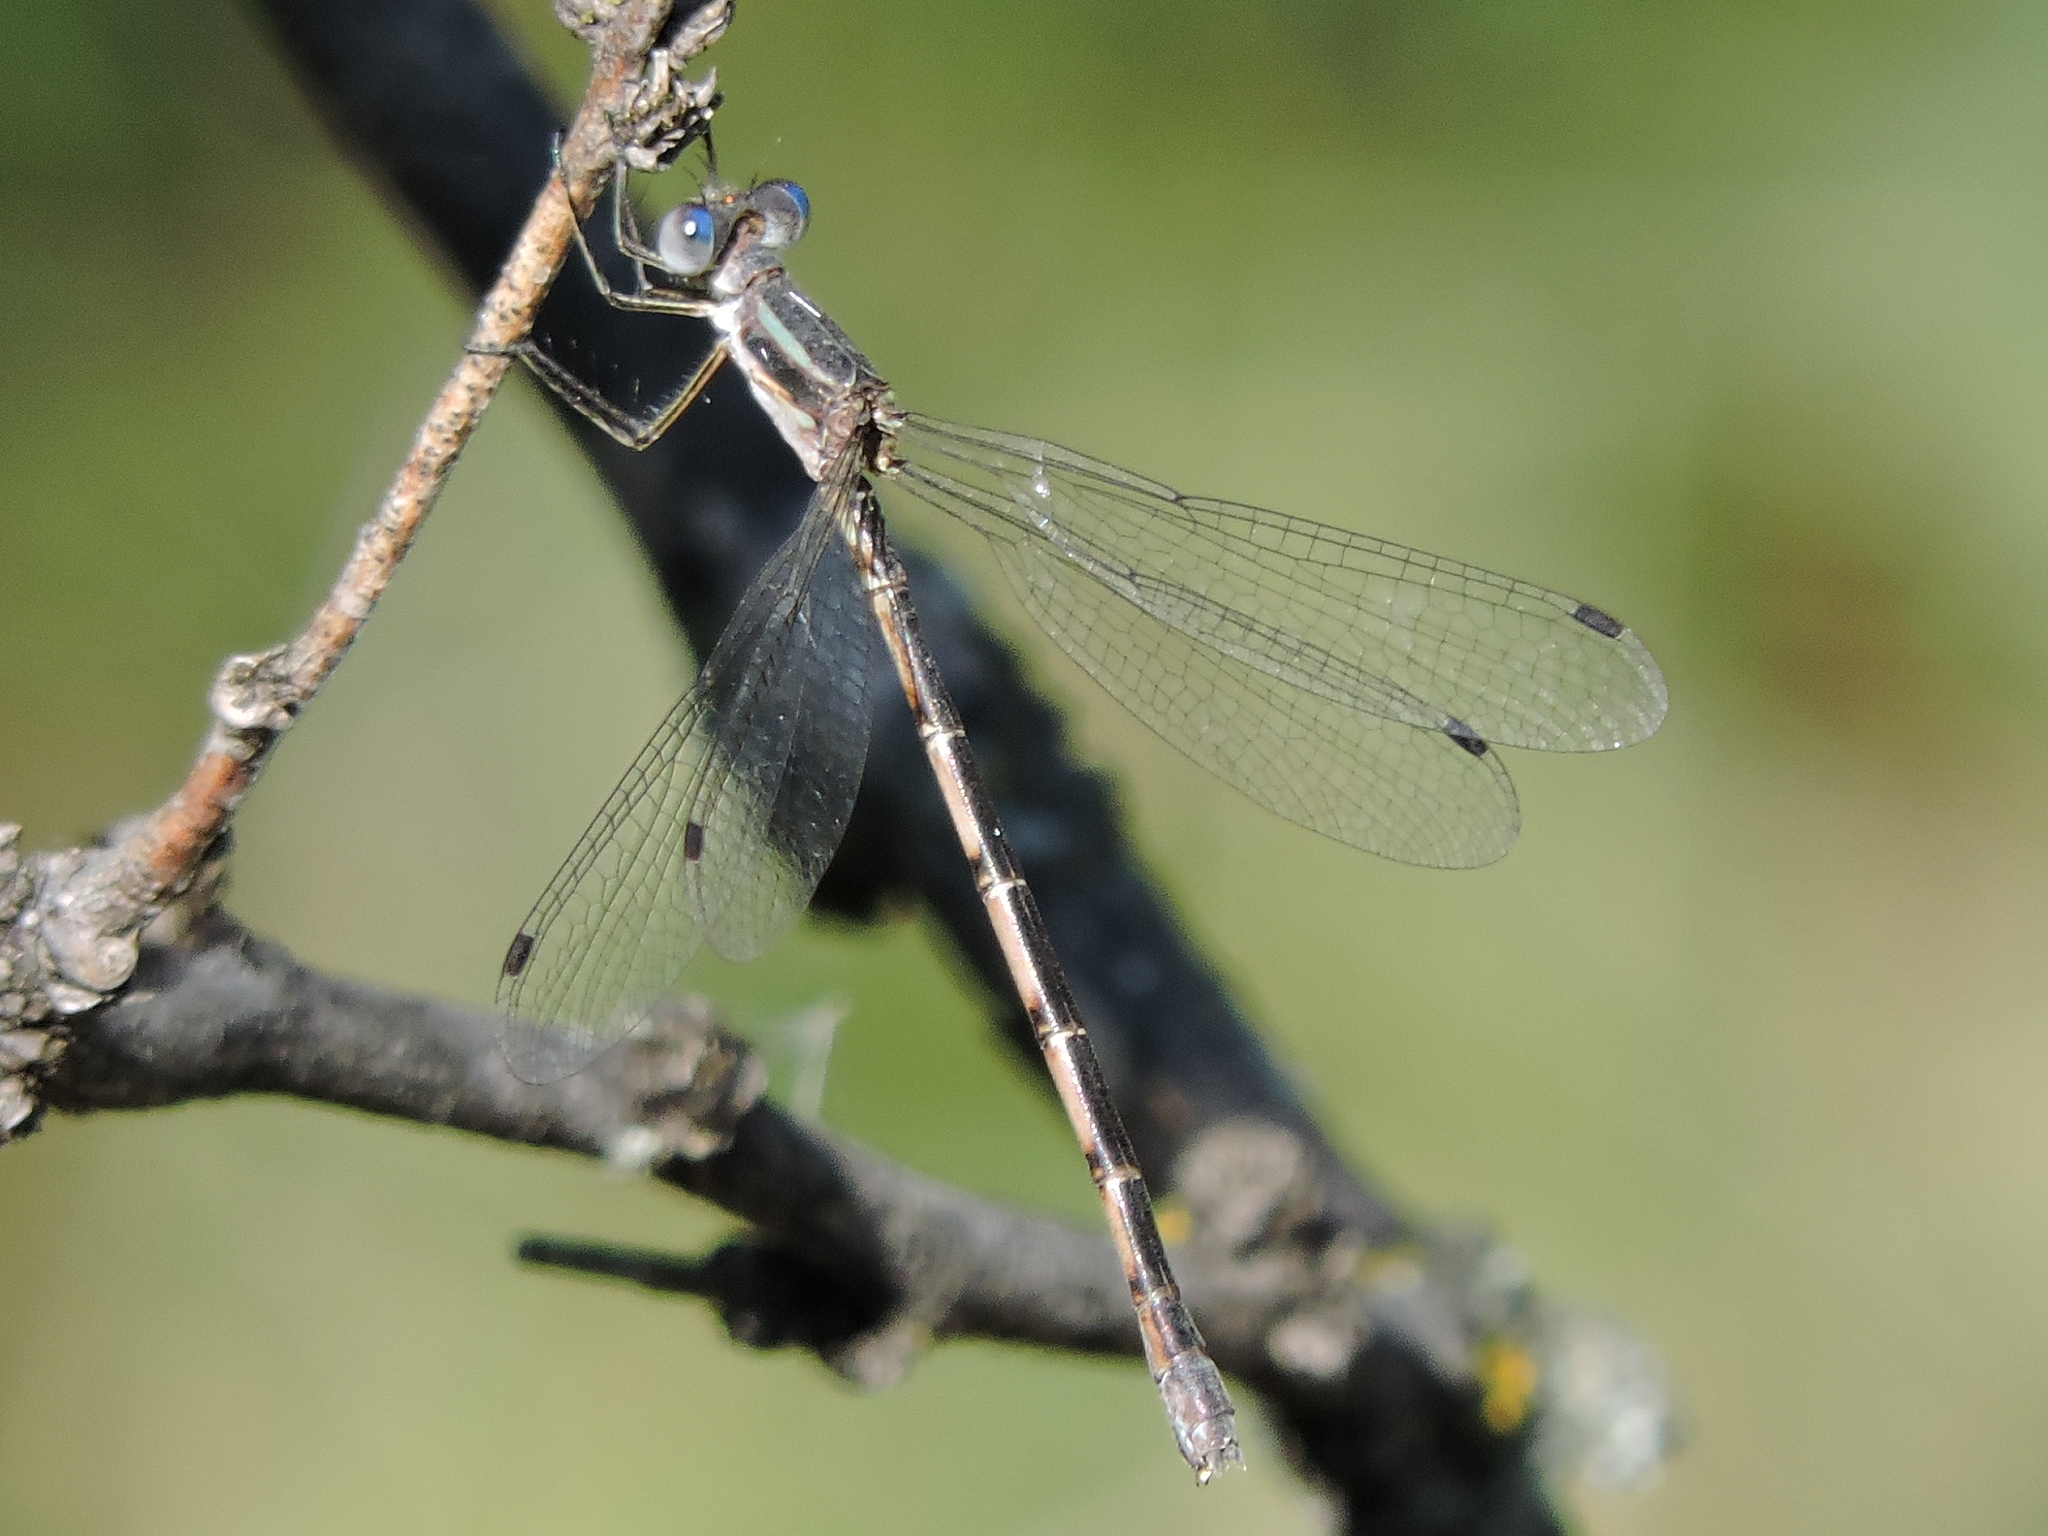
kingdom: Animalia
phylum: Arthropoda
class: Insecta
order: Odonata
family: Lestidae
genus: Lestes
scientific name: Lestes australis
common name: Southern spreadwing
